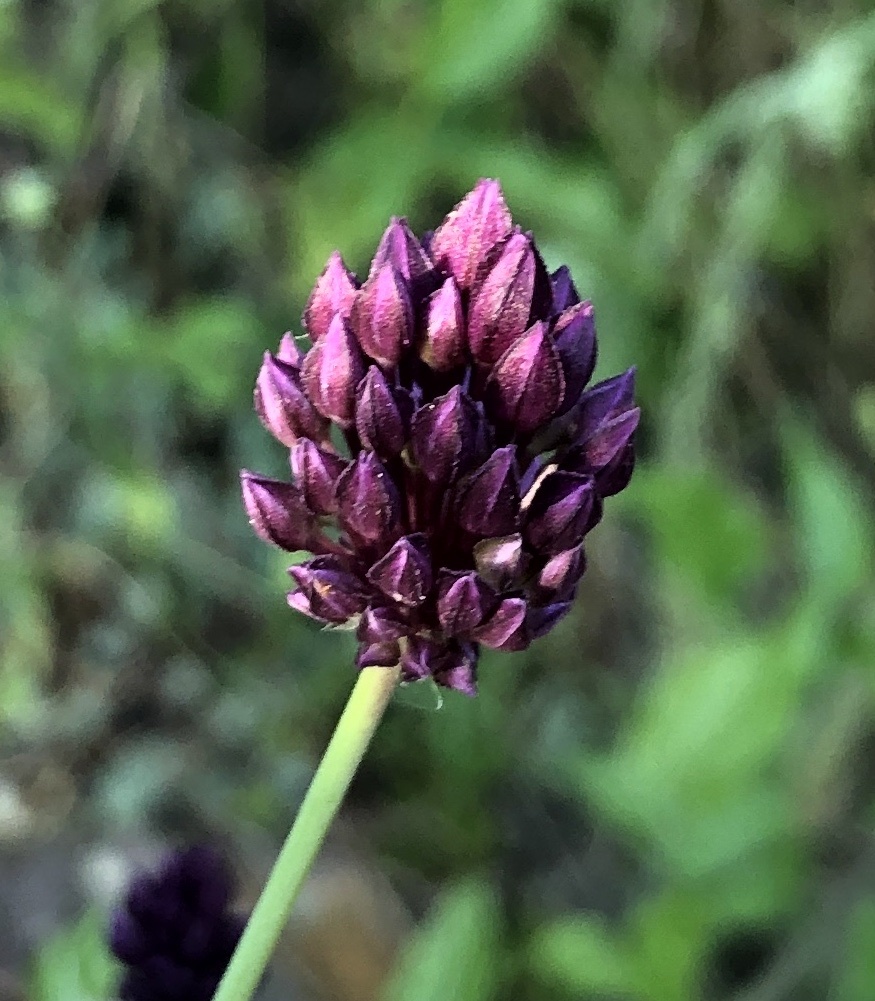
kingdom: Plantae
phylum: Tracheophyta
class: Liliopsida
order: Asparagales
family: Amaryllidaceae
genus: Allium
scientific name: Allium rotundum
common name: Sand leek
